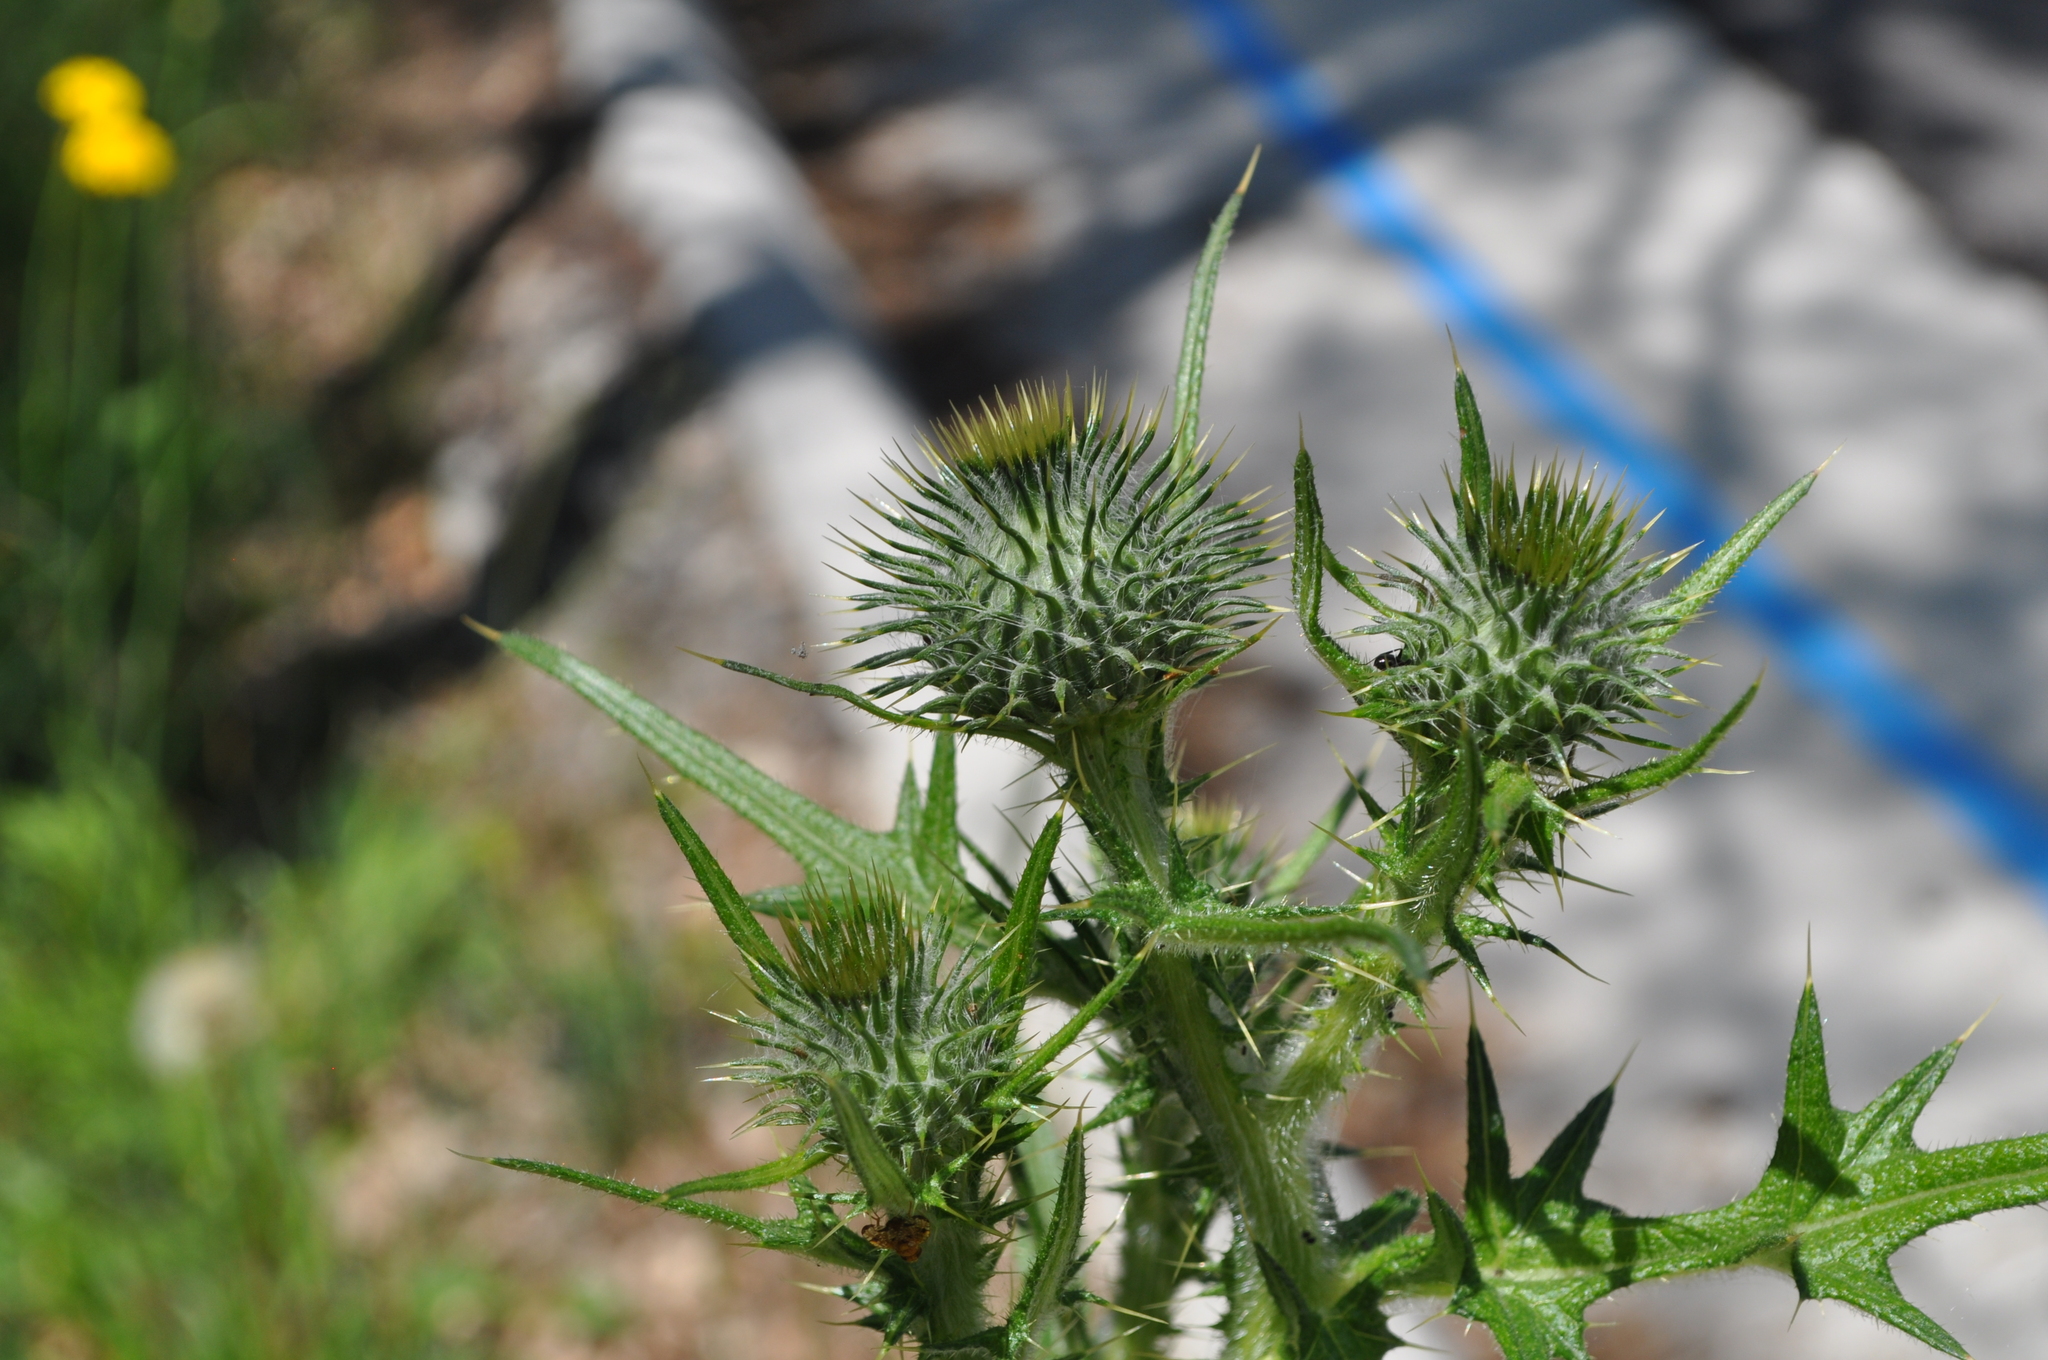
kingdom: Plantae
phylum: Tracheophyta
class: Magnoliopsida
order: Asterales
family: Asteraceae
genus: Cirsium
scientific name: Cirsium vulgare
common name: Bull thistle
